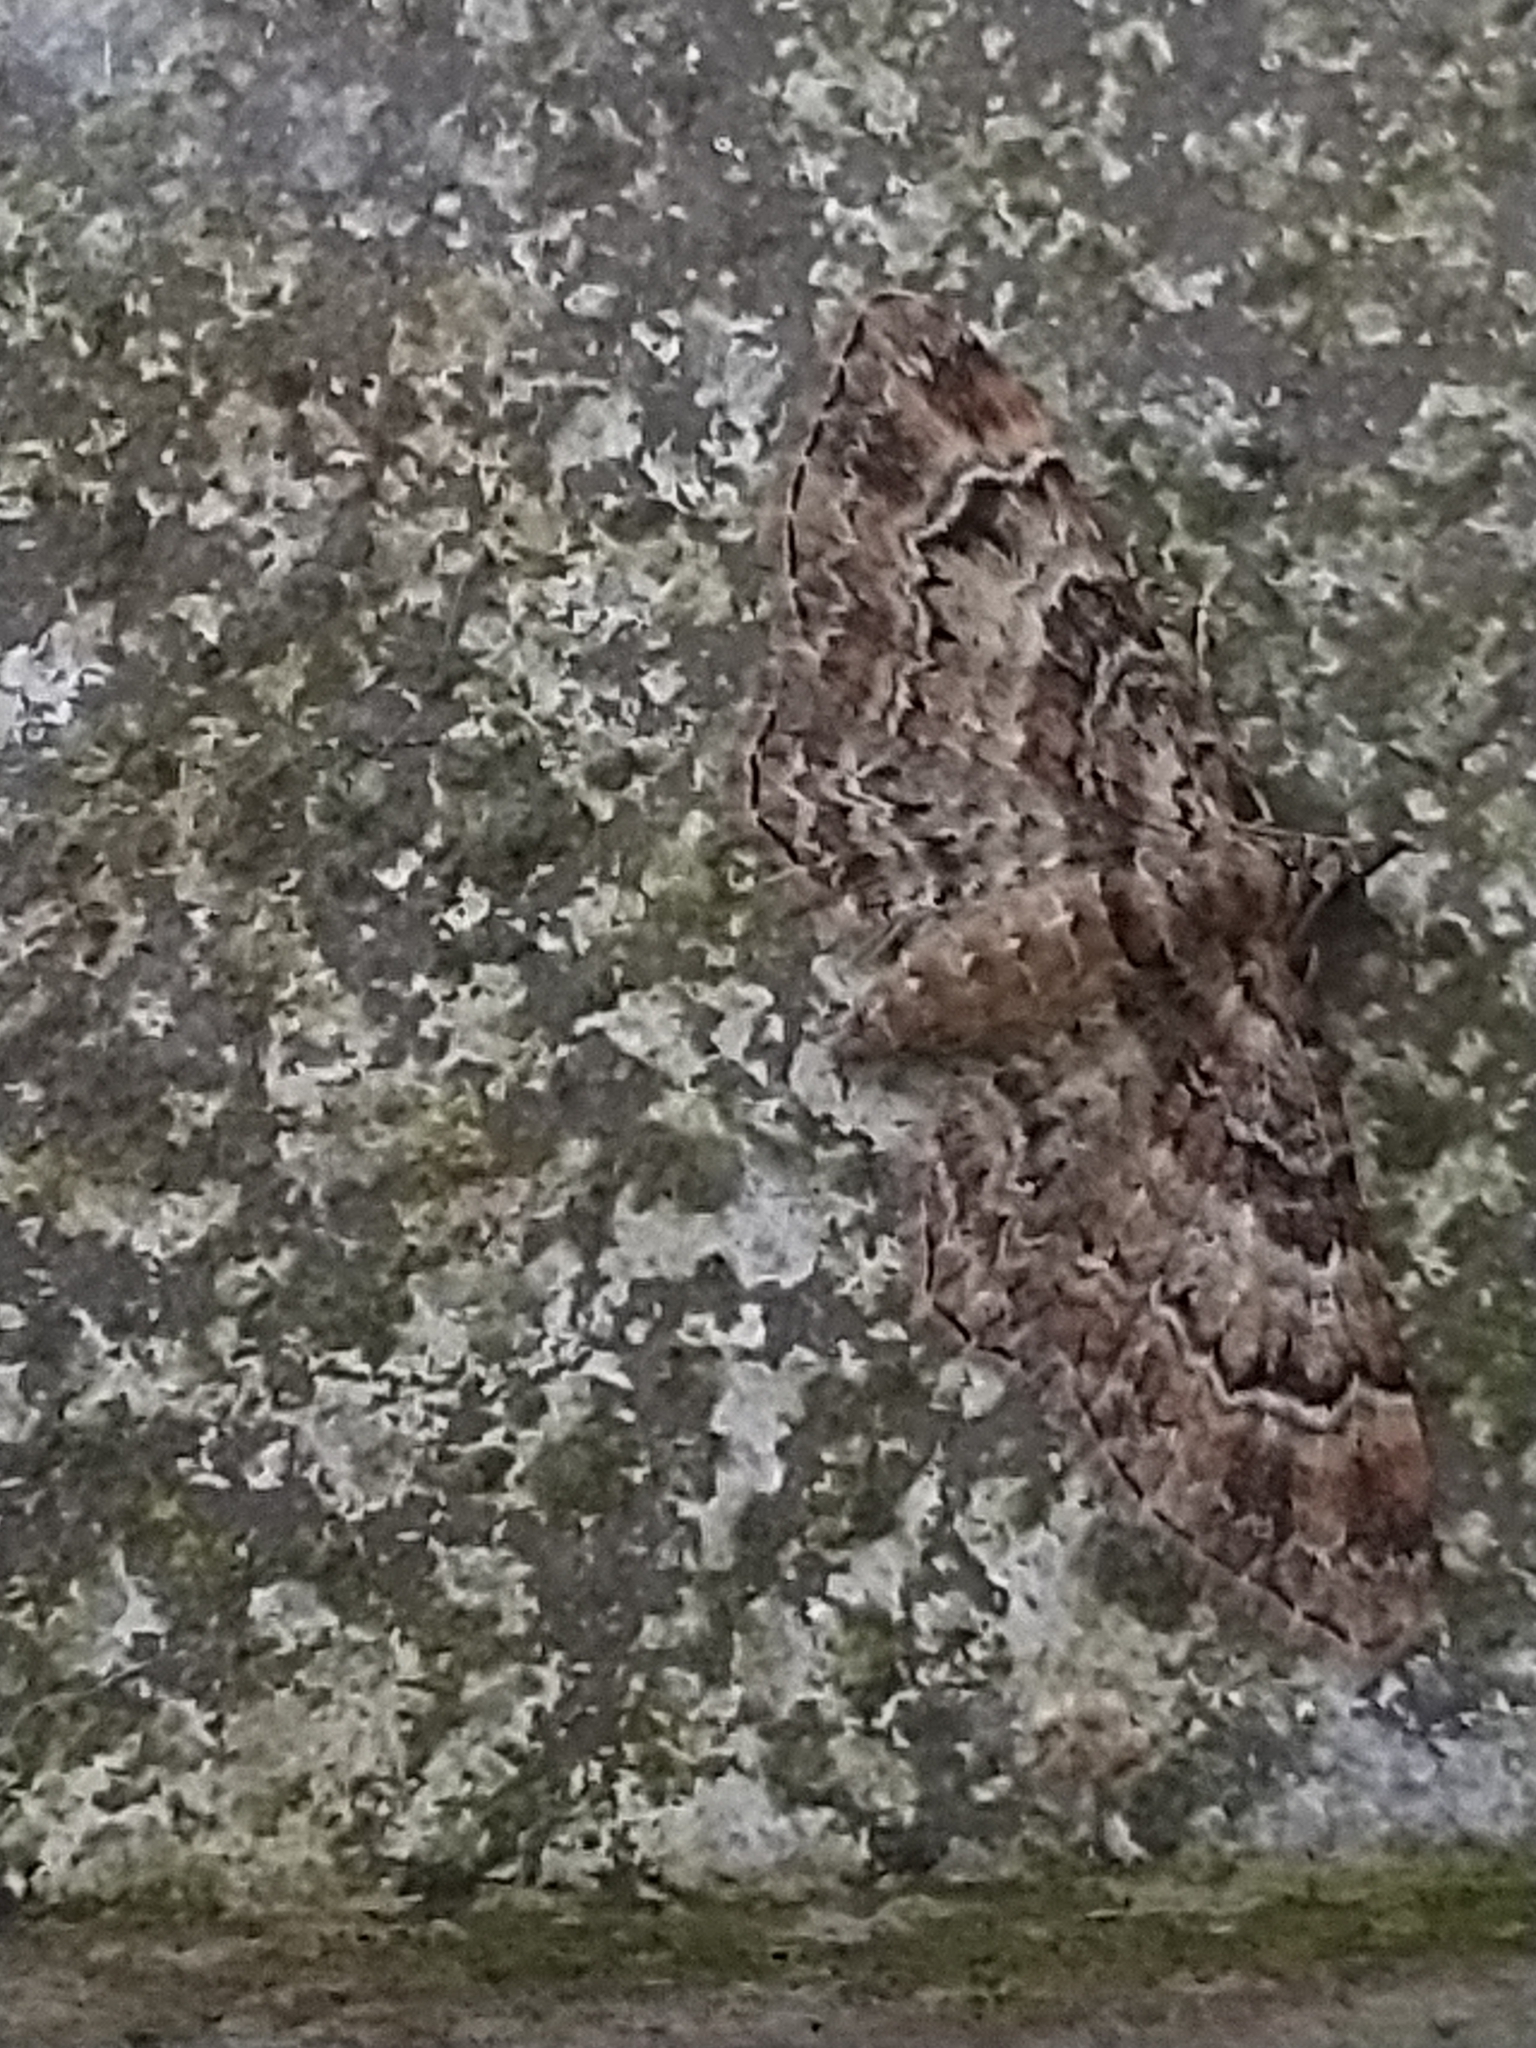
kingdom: Animalia
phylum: Arthropoda
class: Insecta
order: Lepidoptera
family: Geometridae
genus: Gymnoscelis
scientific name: Gymnoscelis rufifasciata
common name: Double-striped pug
